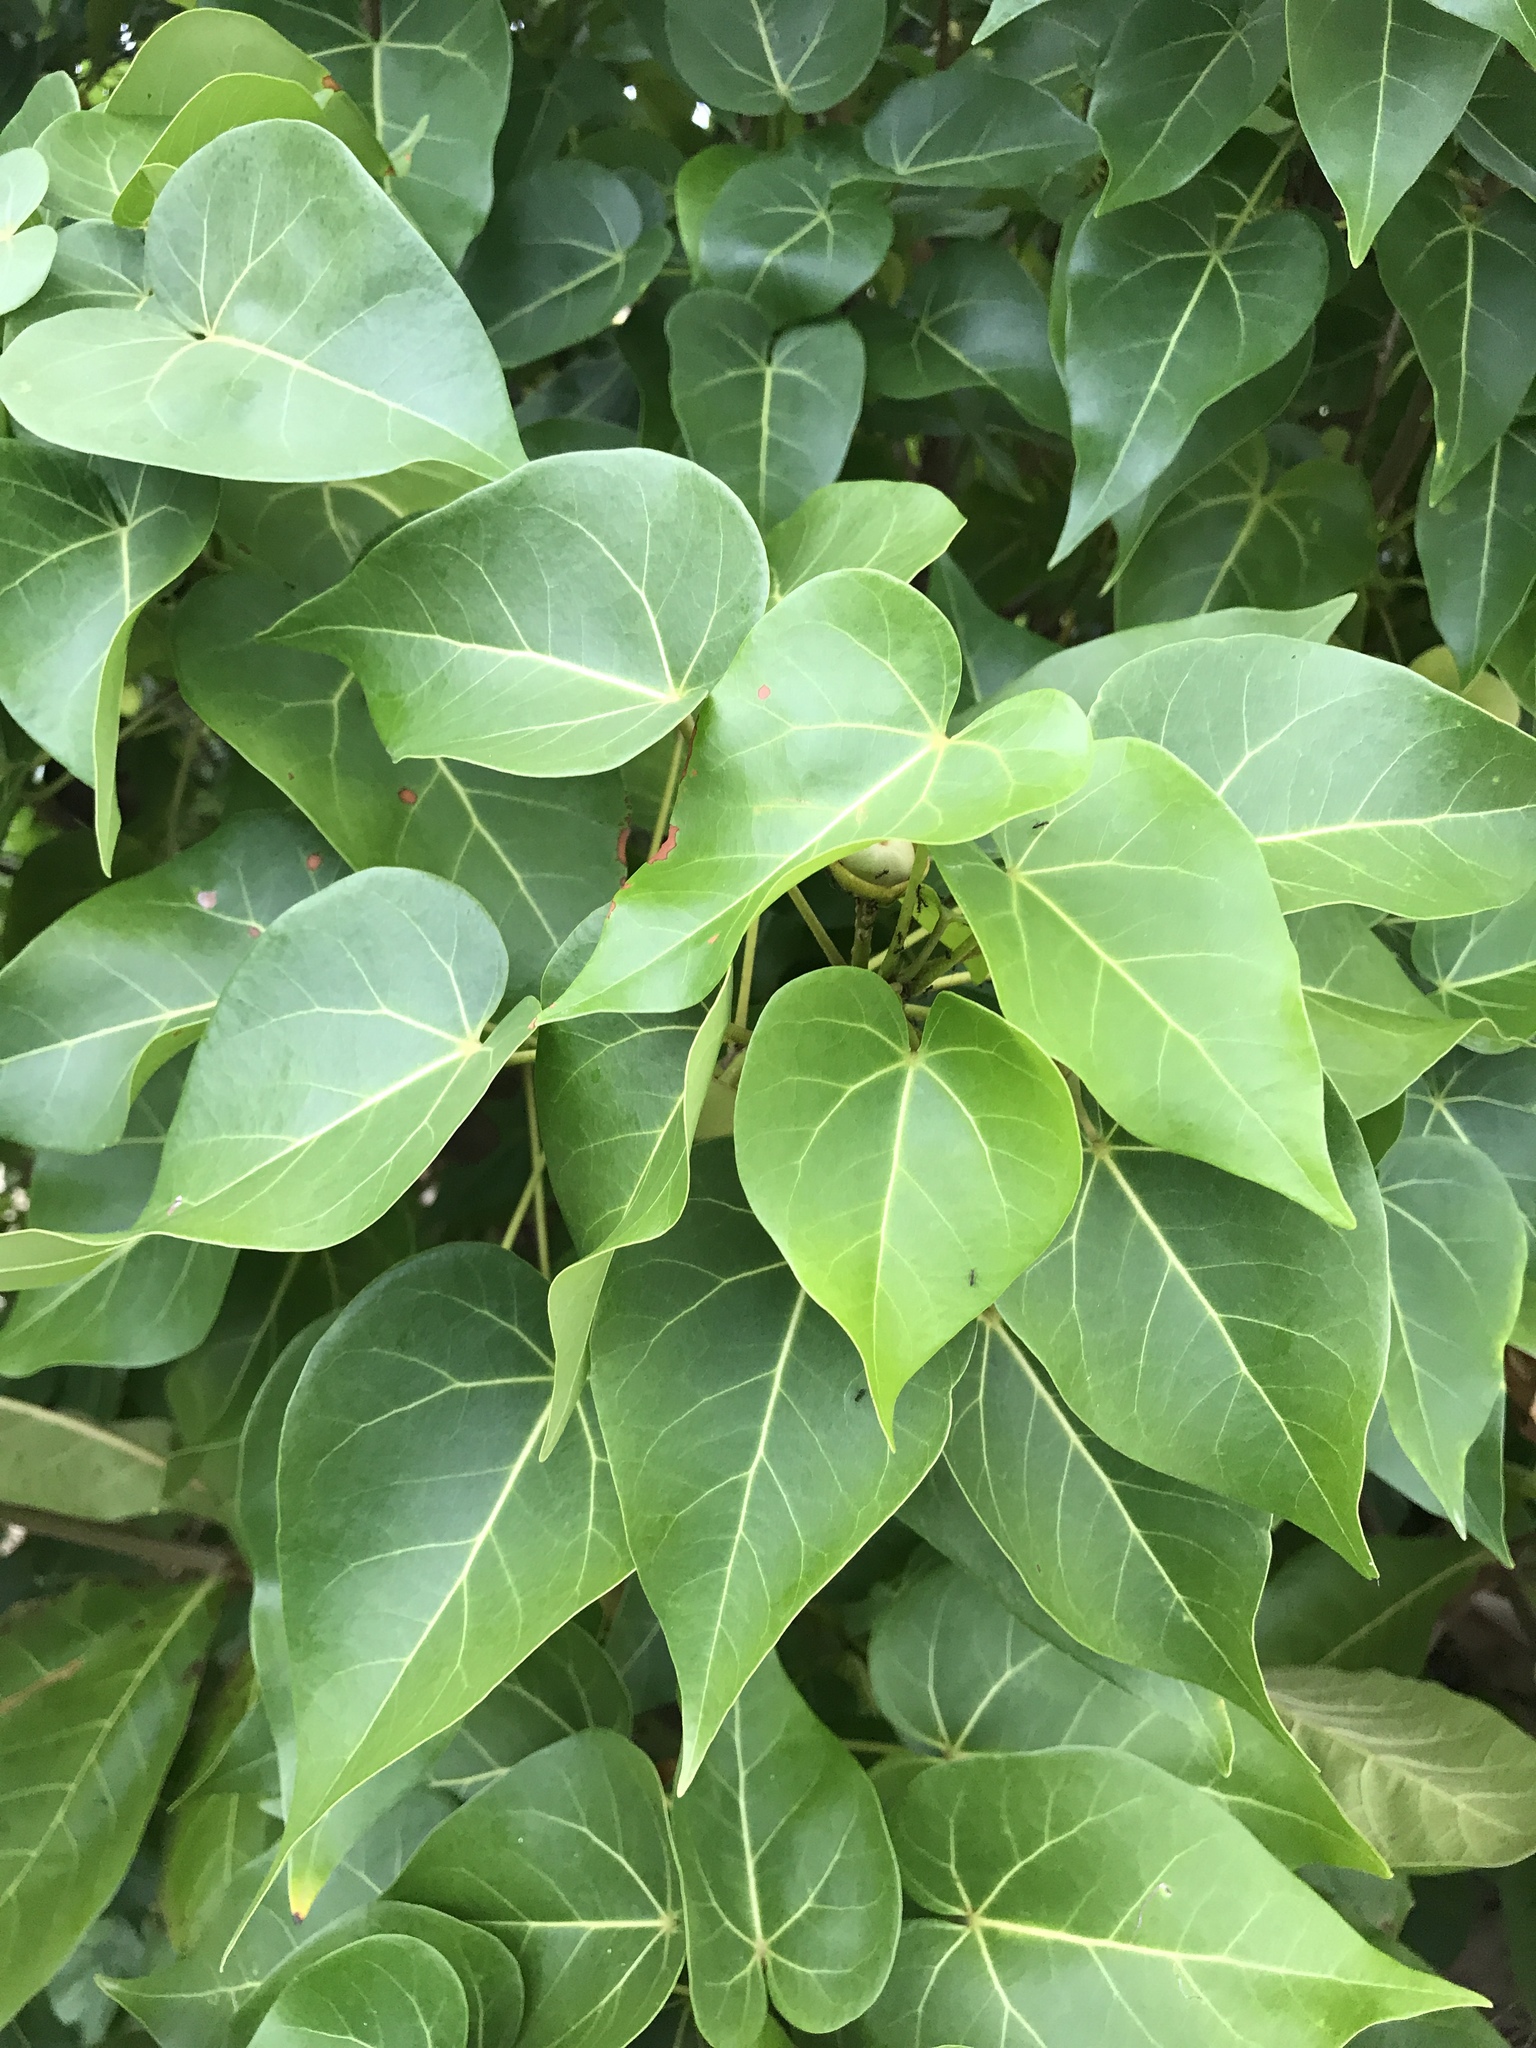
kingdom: Plantae
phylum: Tracheophyta
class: Magnoliopsida
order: Malvales
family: Malvaceae
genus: Thespesia
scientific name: Thespesia populnea
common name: Seaside mahoe
